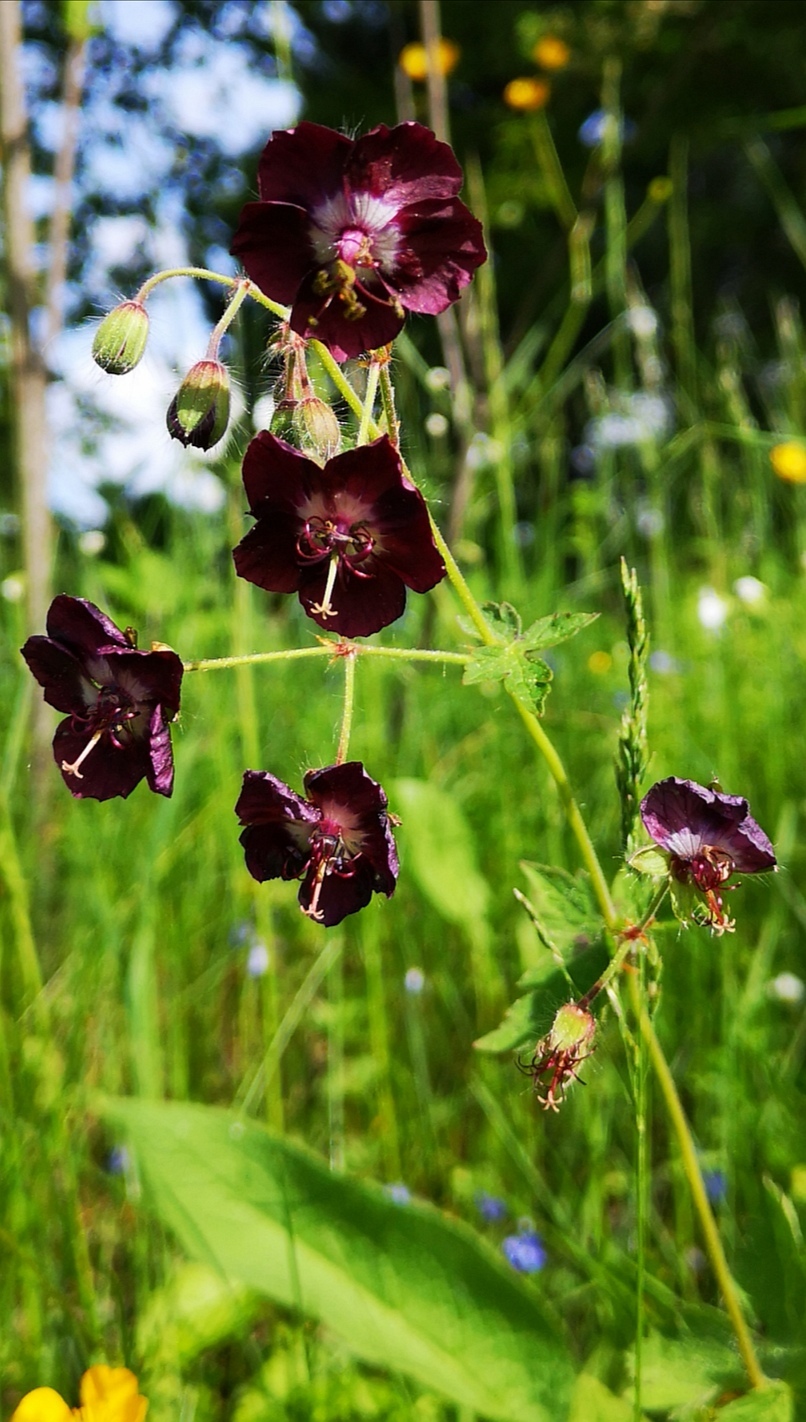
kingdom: Plantae
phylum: Tracheophyta
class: Magnoliopsida
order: Geraniales
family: Geraniaceae
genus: Geranium
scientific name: Geranium phaeum
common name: Dusky crane's-bill
